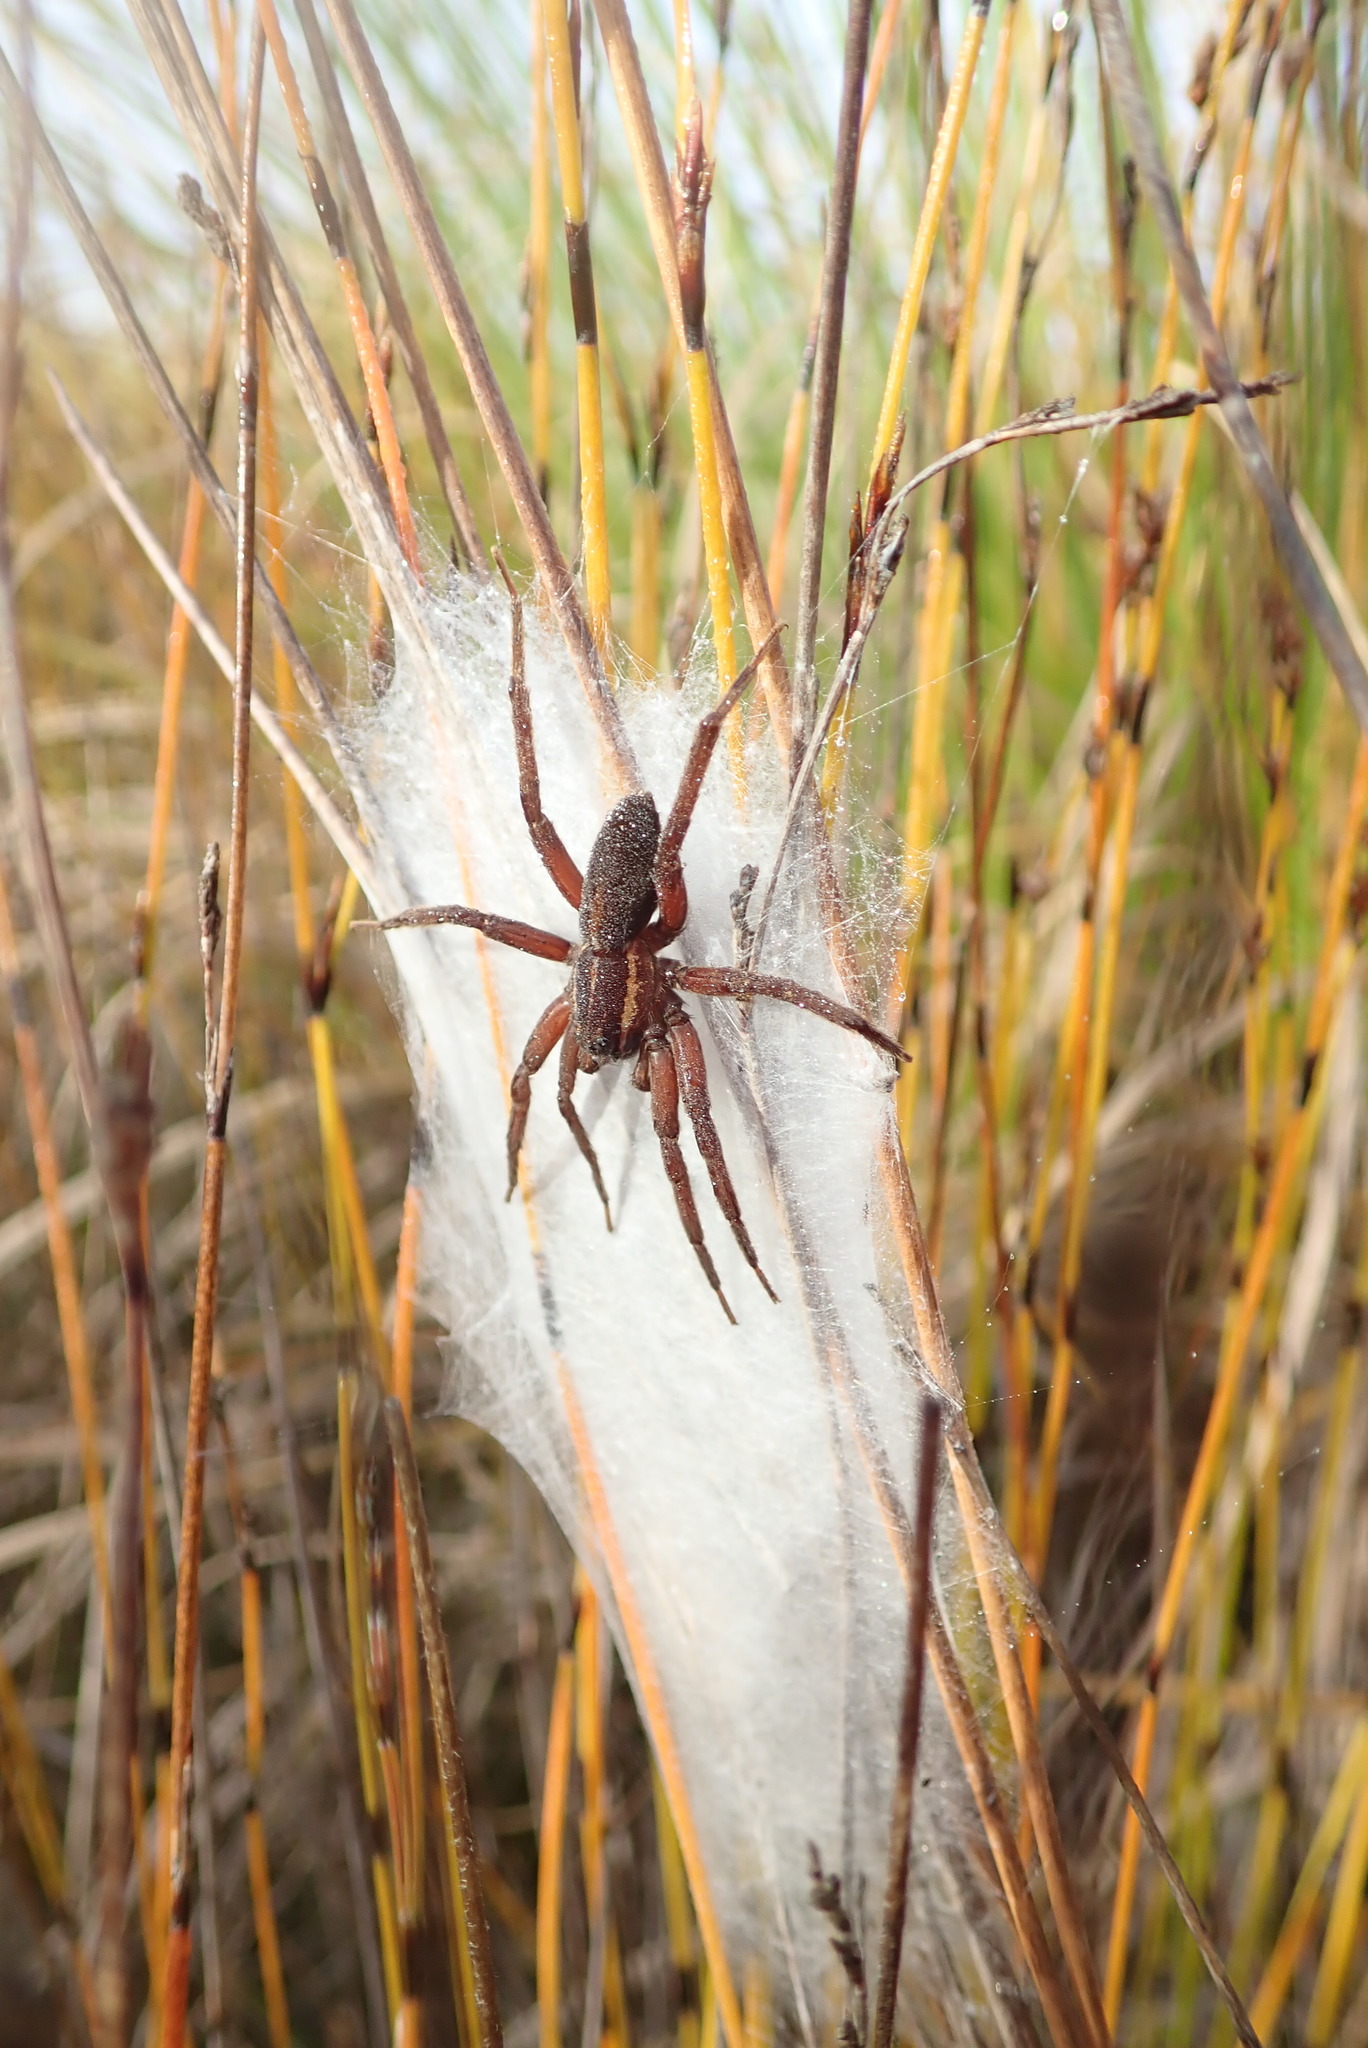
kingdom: Animalia
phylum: Arthropoda
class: Arachnida
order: Araneae
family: Pisauridae
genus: Dolomedes
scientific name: Dolomedes minor
